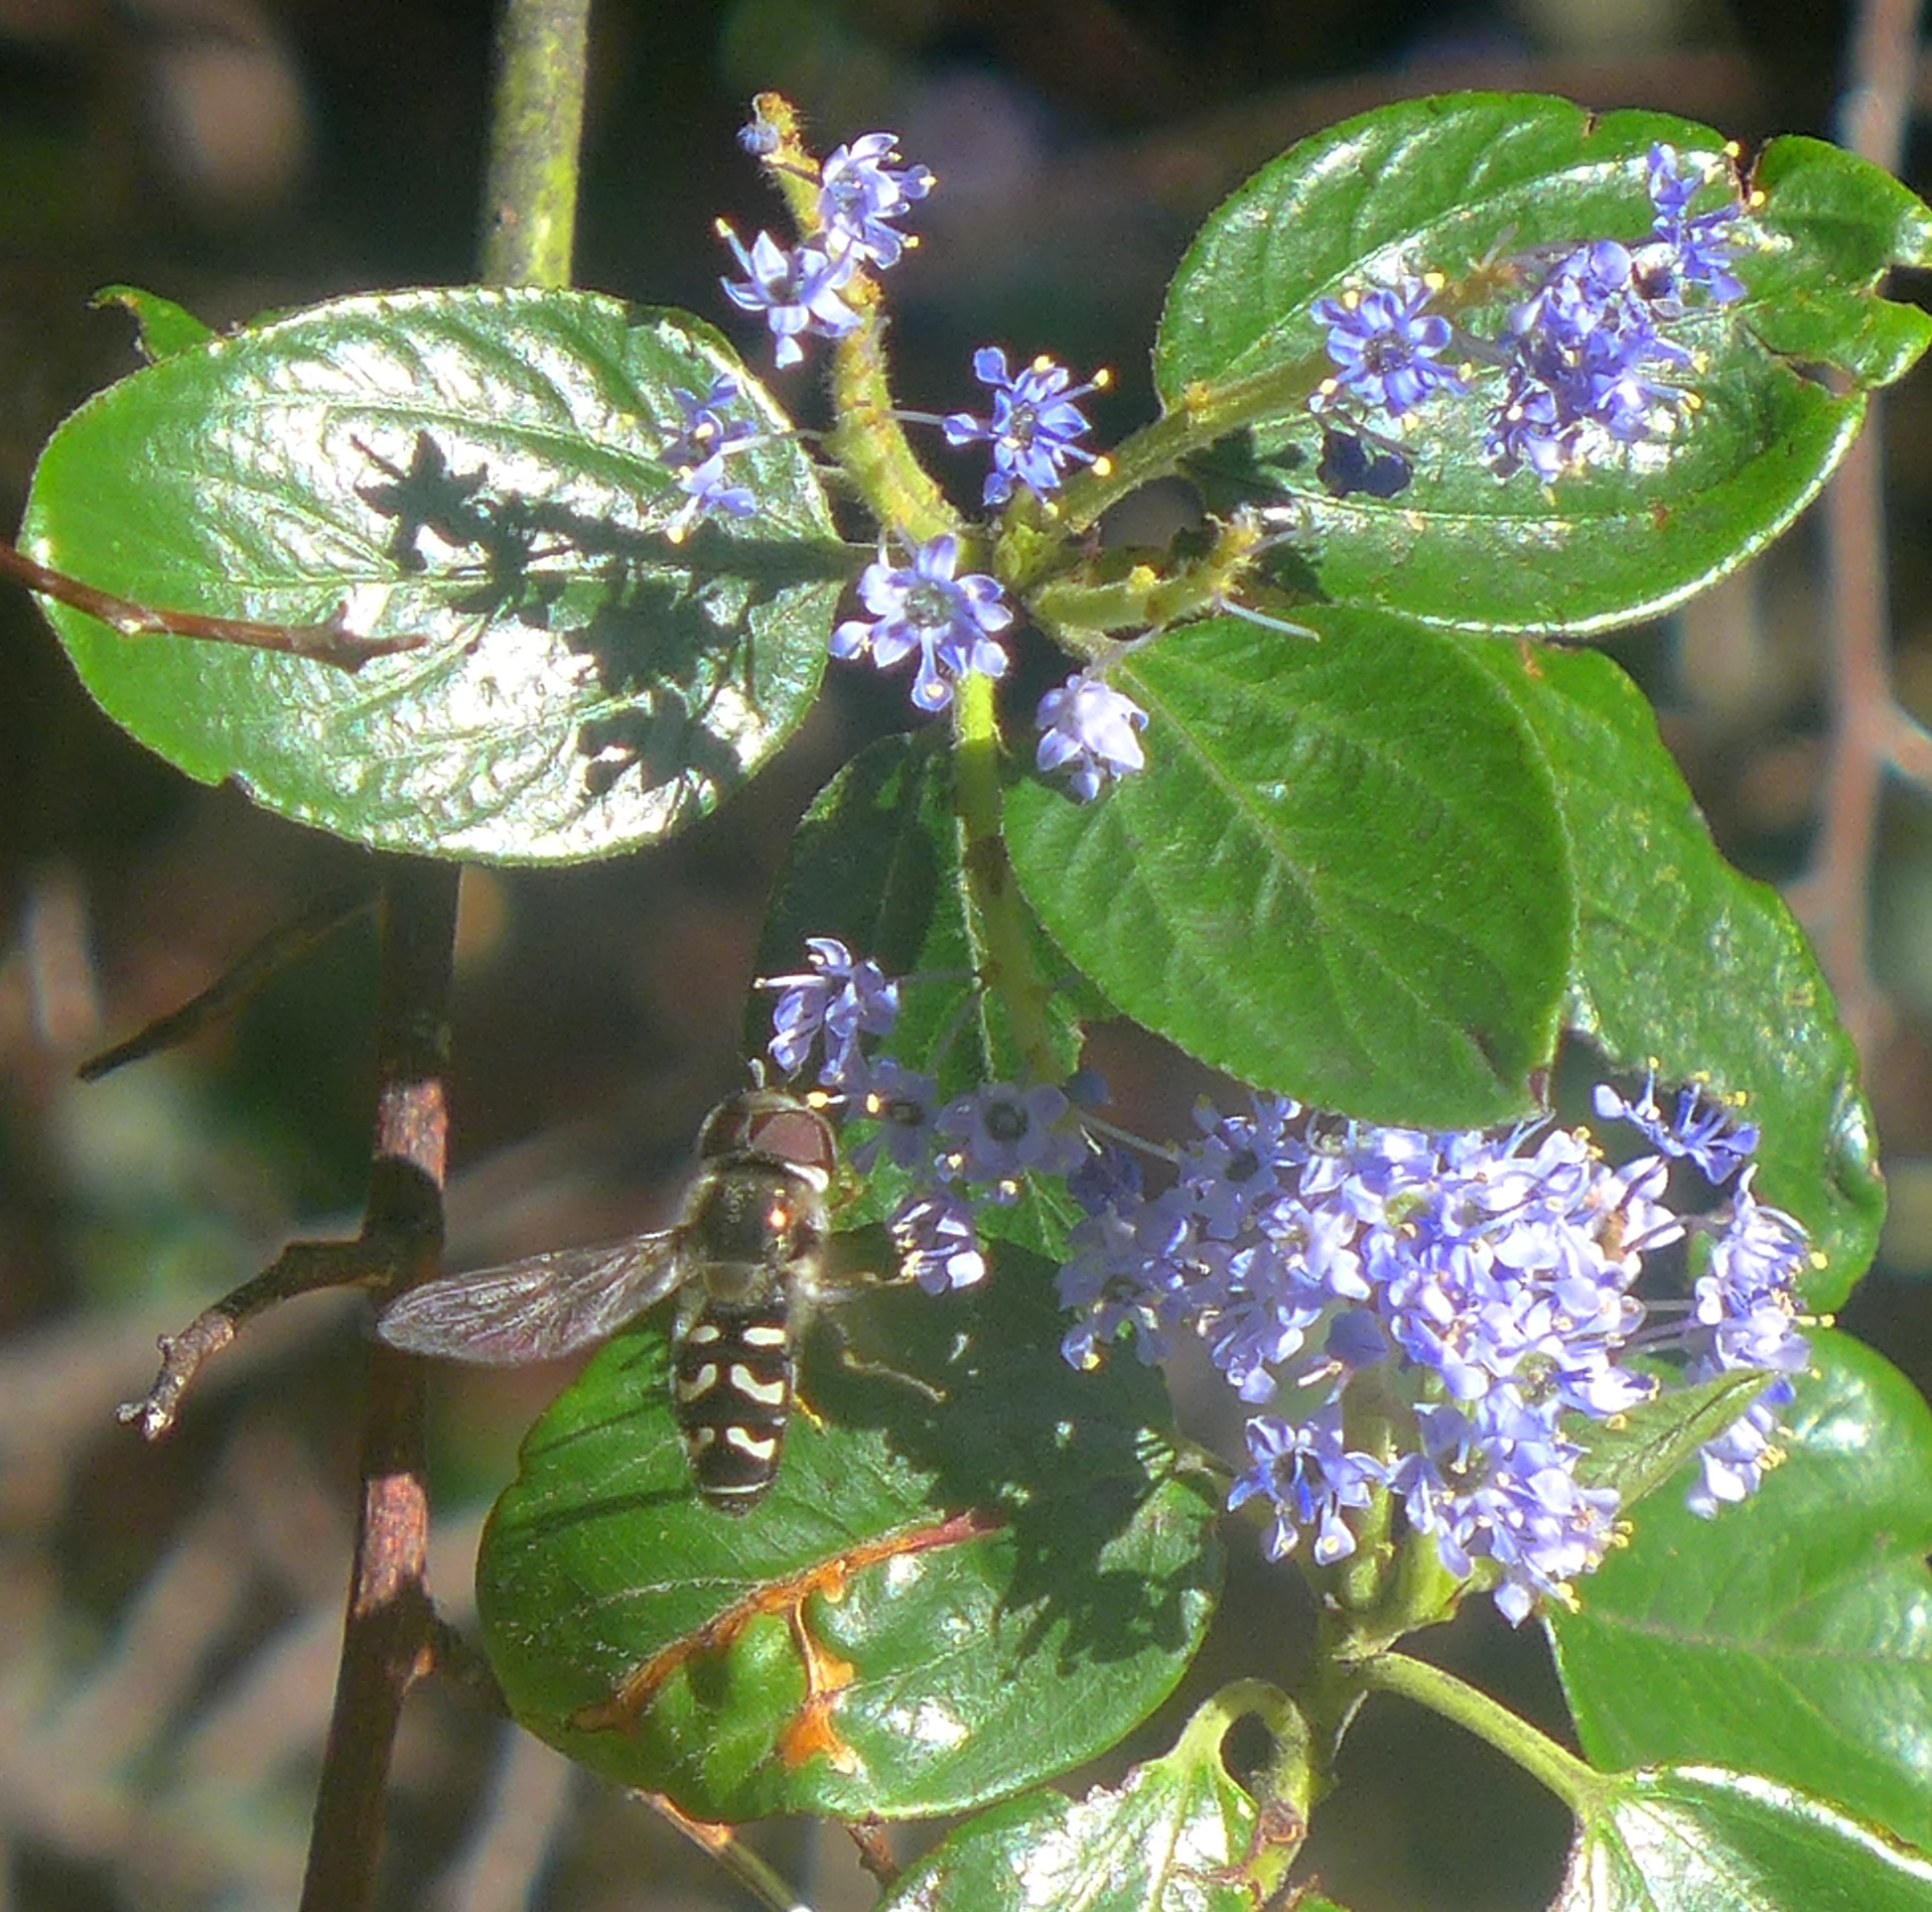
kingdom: Animalia
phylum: Arthropoda
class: Insecta
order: Diptera
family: Syrphidae
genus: Scaeva
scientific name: Scaeva affinis
